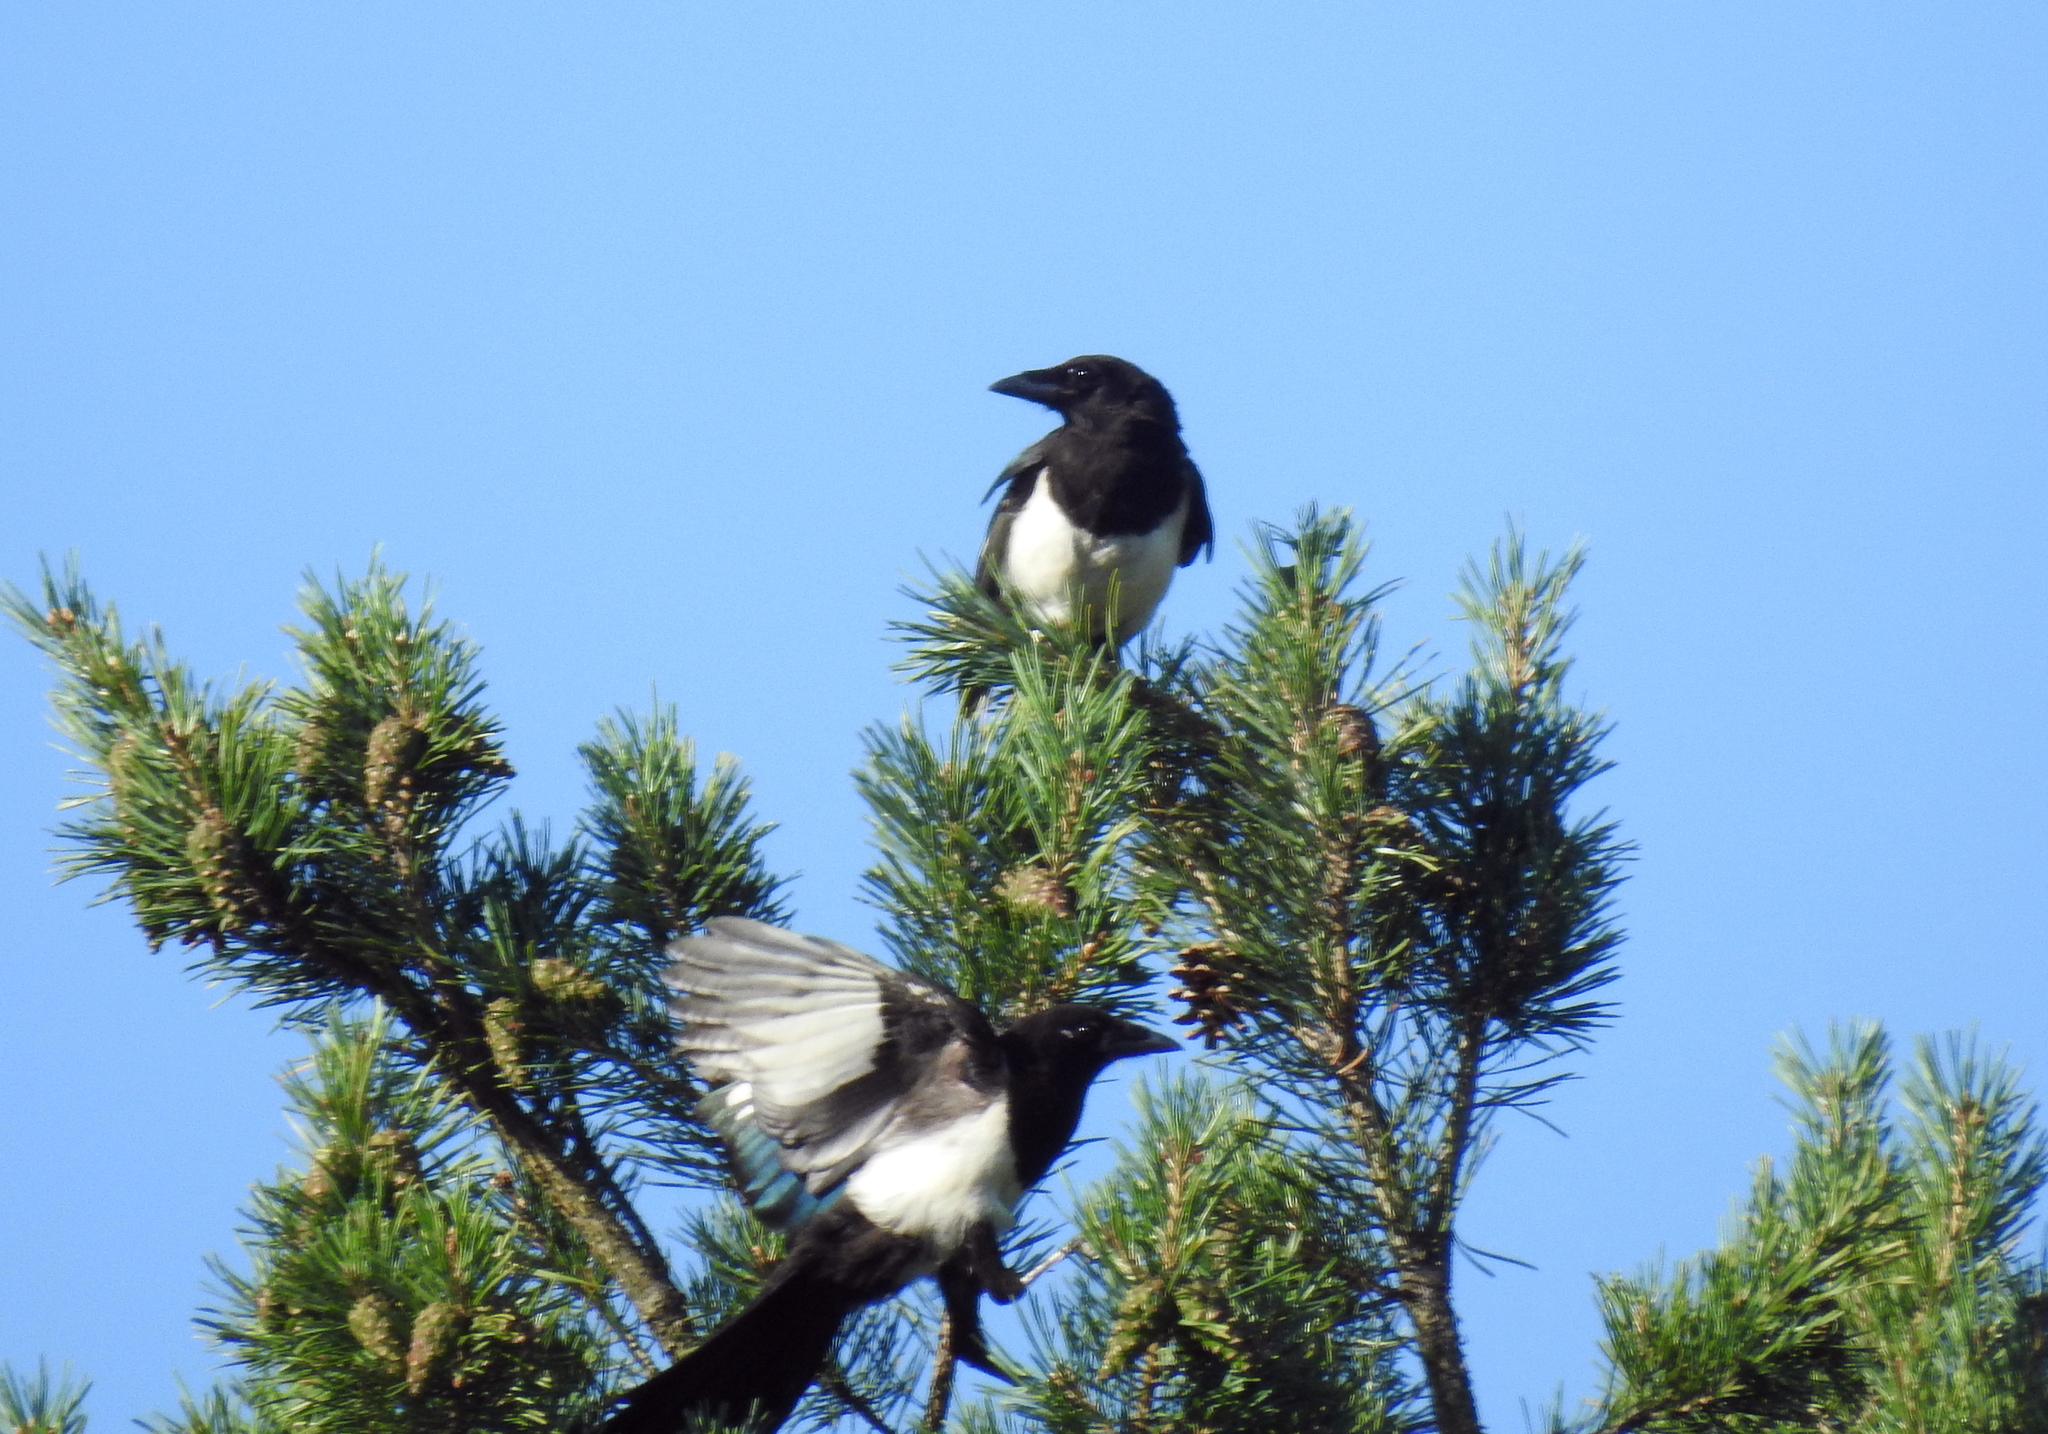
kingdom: Animalia
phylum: Chordata
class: Aves
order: Passeriformes
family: Corvidae
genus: Pica
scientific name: Pica pica
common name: Eurasian magpie
